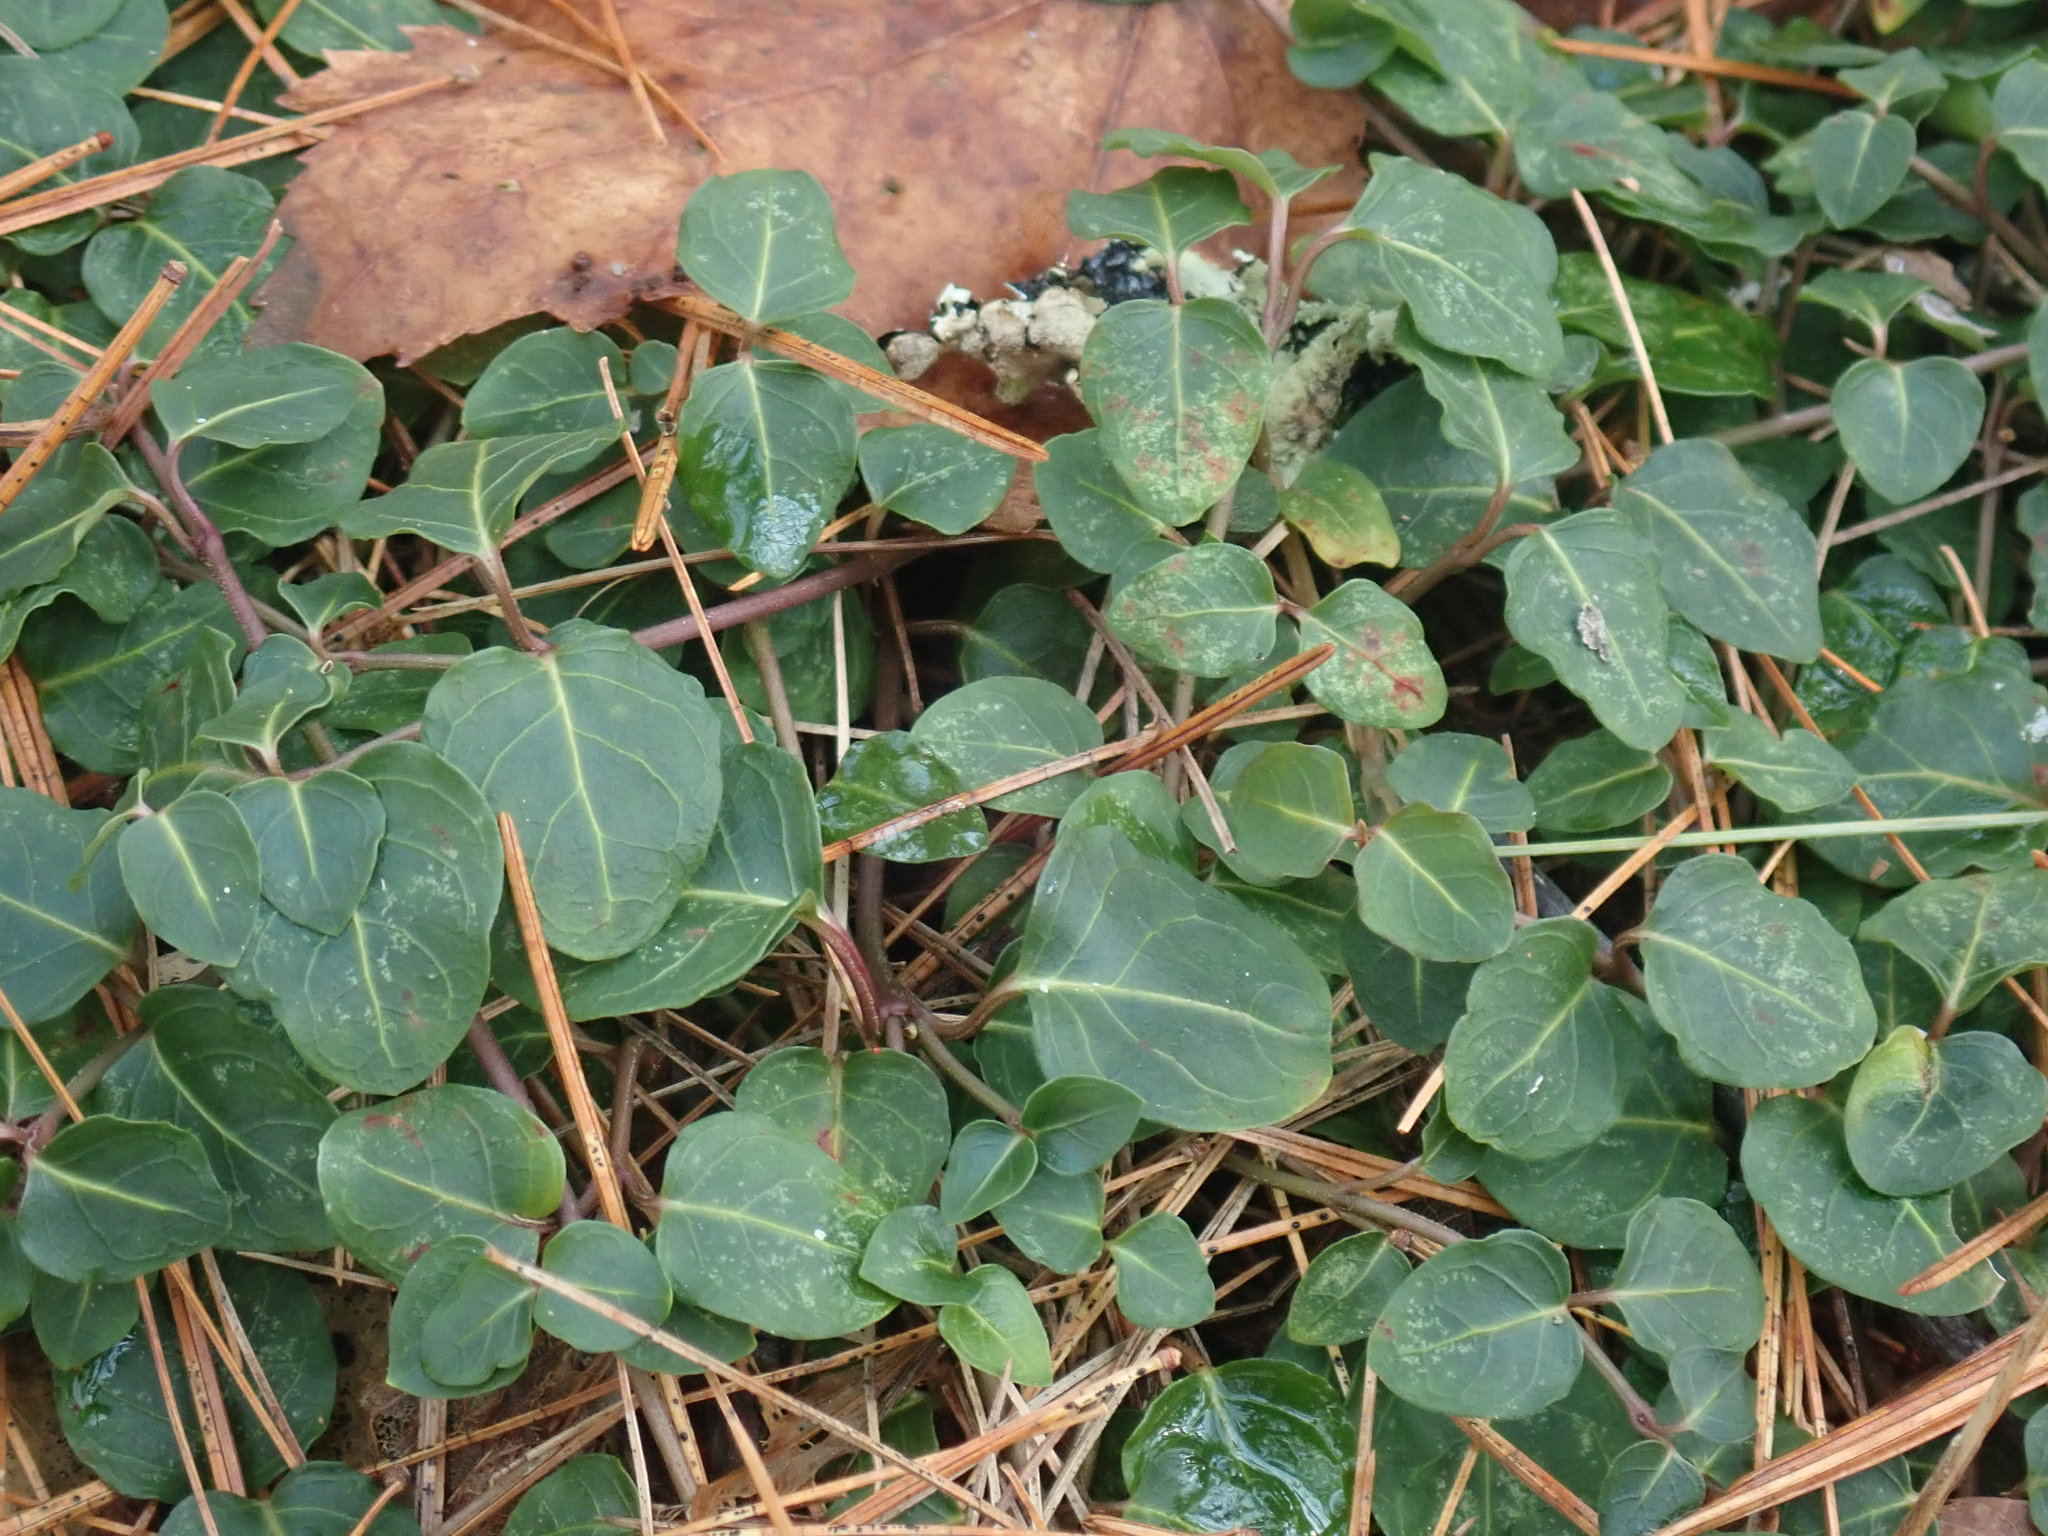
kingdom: Plantae
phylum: Tracheophyta
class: Magnoliopsida
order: Gentianales
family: Rubiaceae
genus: Mitchella
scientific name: Mitchella repens
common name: Partridge-berry
